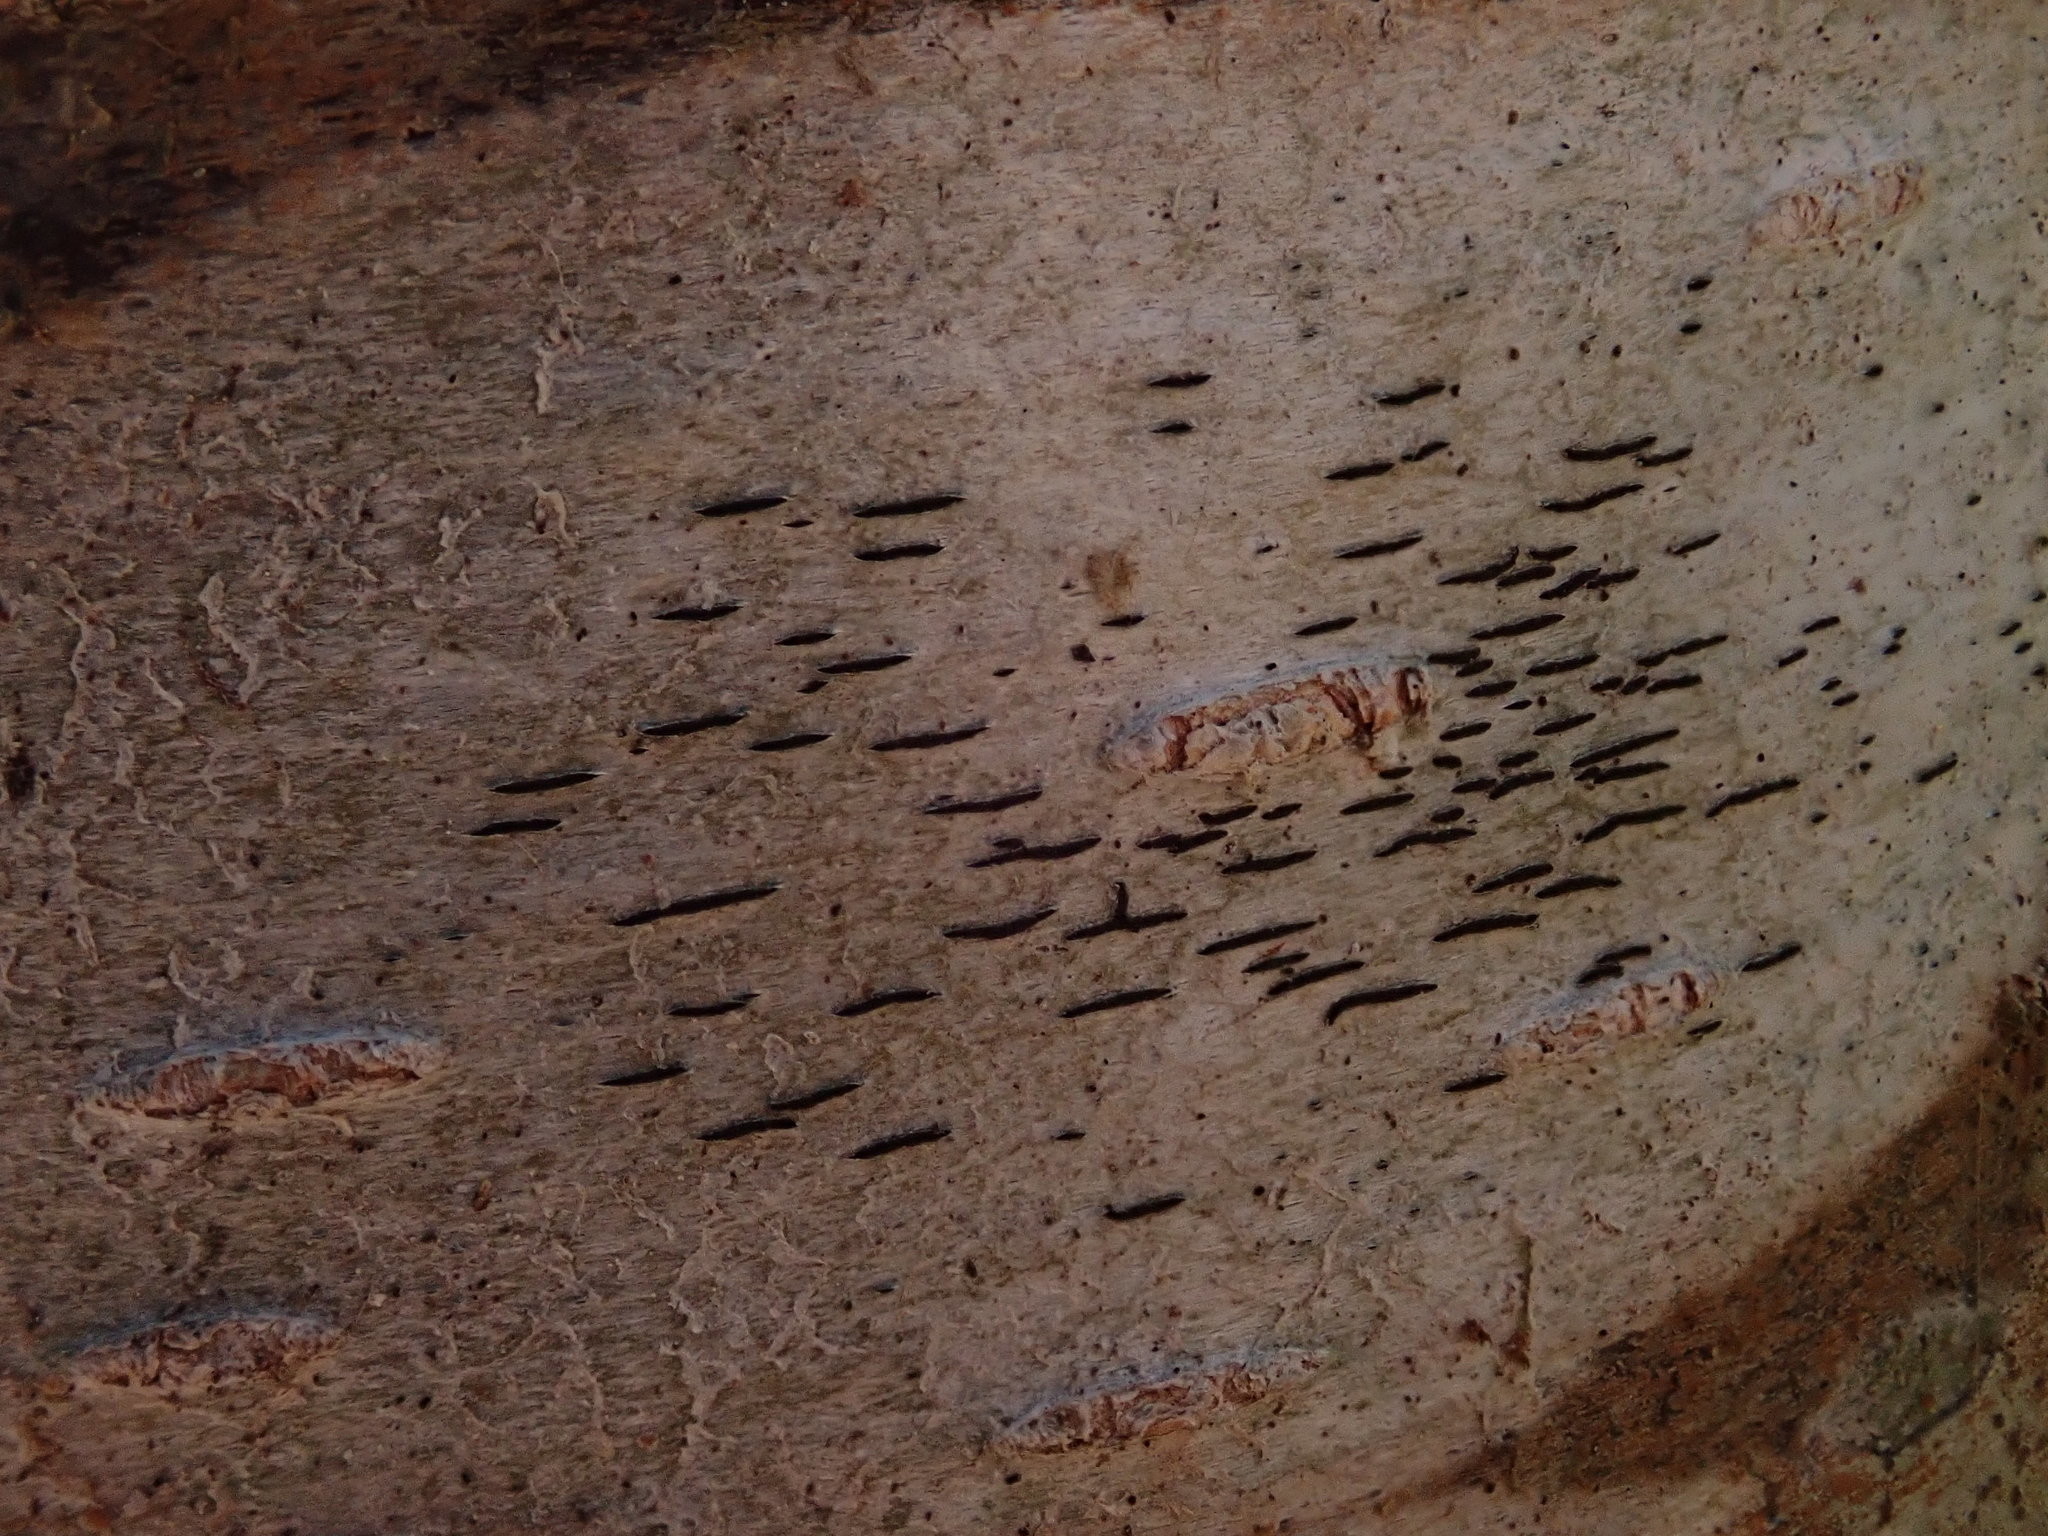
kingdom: Fungi
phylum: Ascomycota
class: Lecanoromycetes
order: Ostropales
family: Graphidaceae
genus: Graphis
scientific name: Graphis scripta
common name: Script lichen
